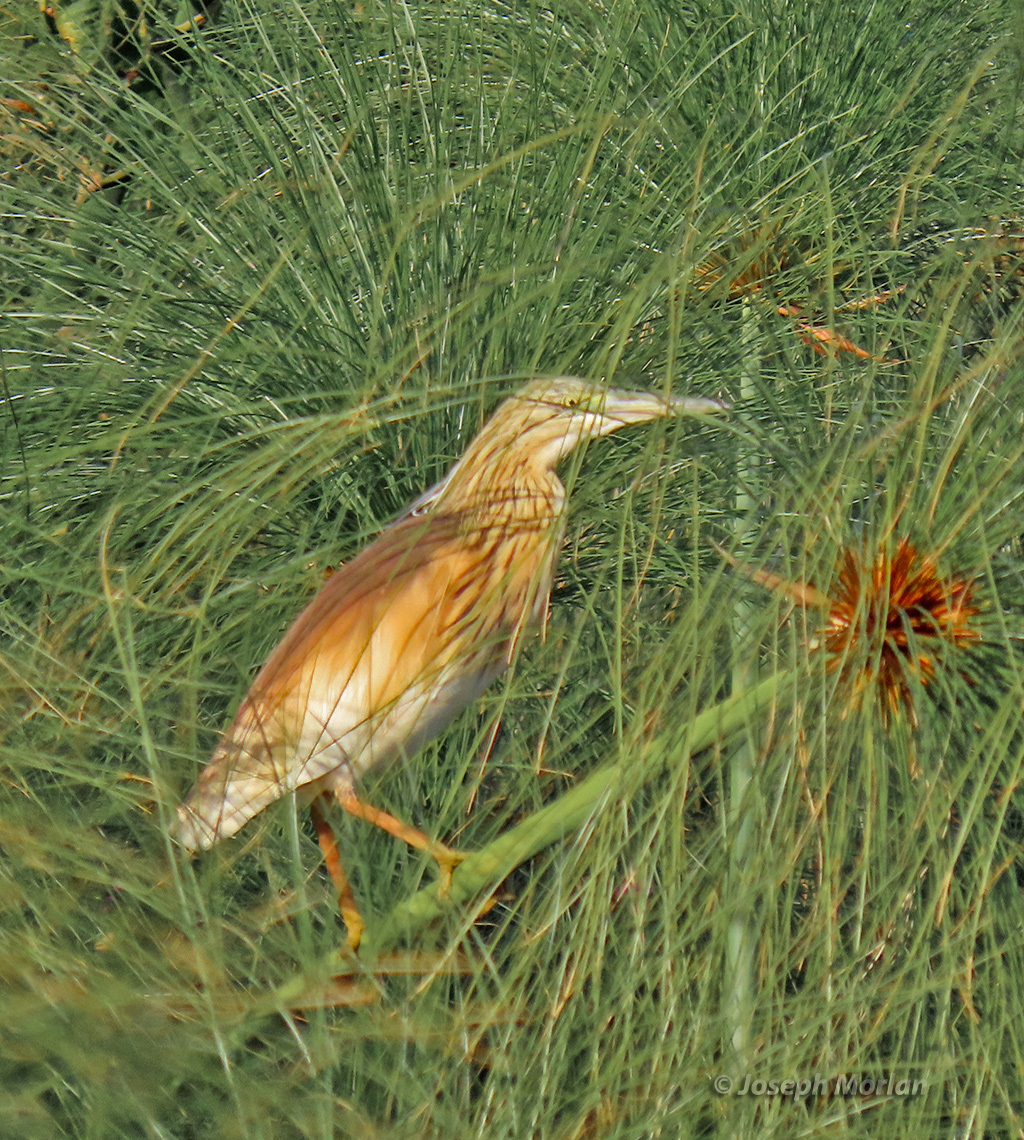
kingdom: Animalia
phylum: Chordata
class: Aves
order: Pelecaniformes
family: Ardeidae
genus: Ardeola
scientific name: Ardeola ralloides
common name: Squacco heron
